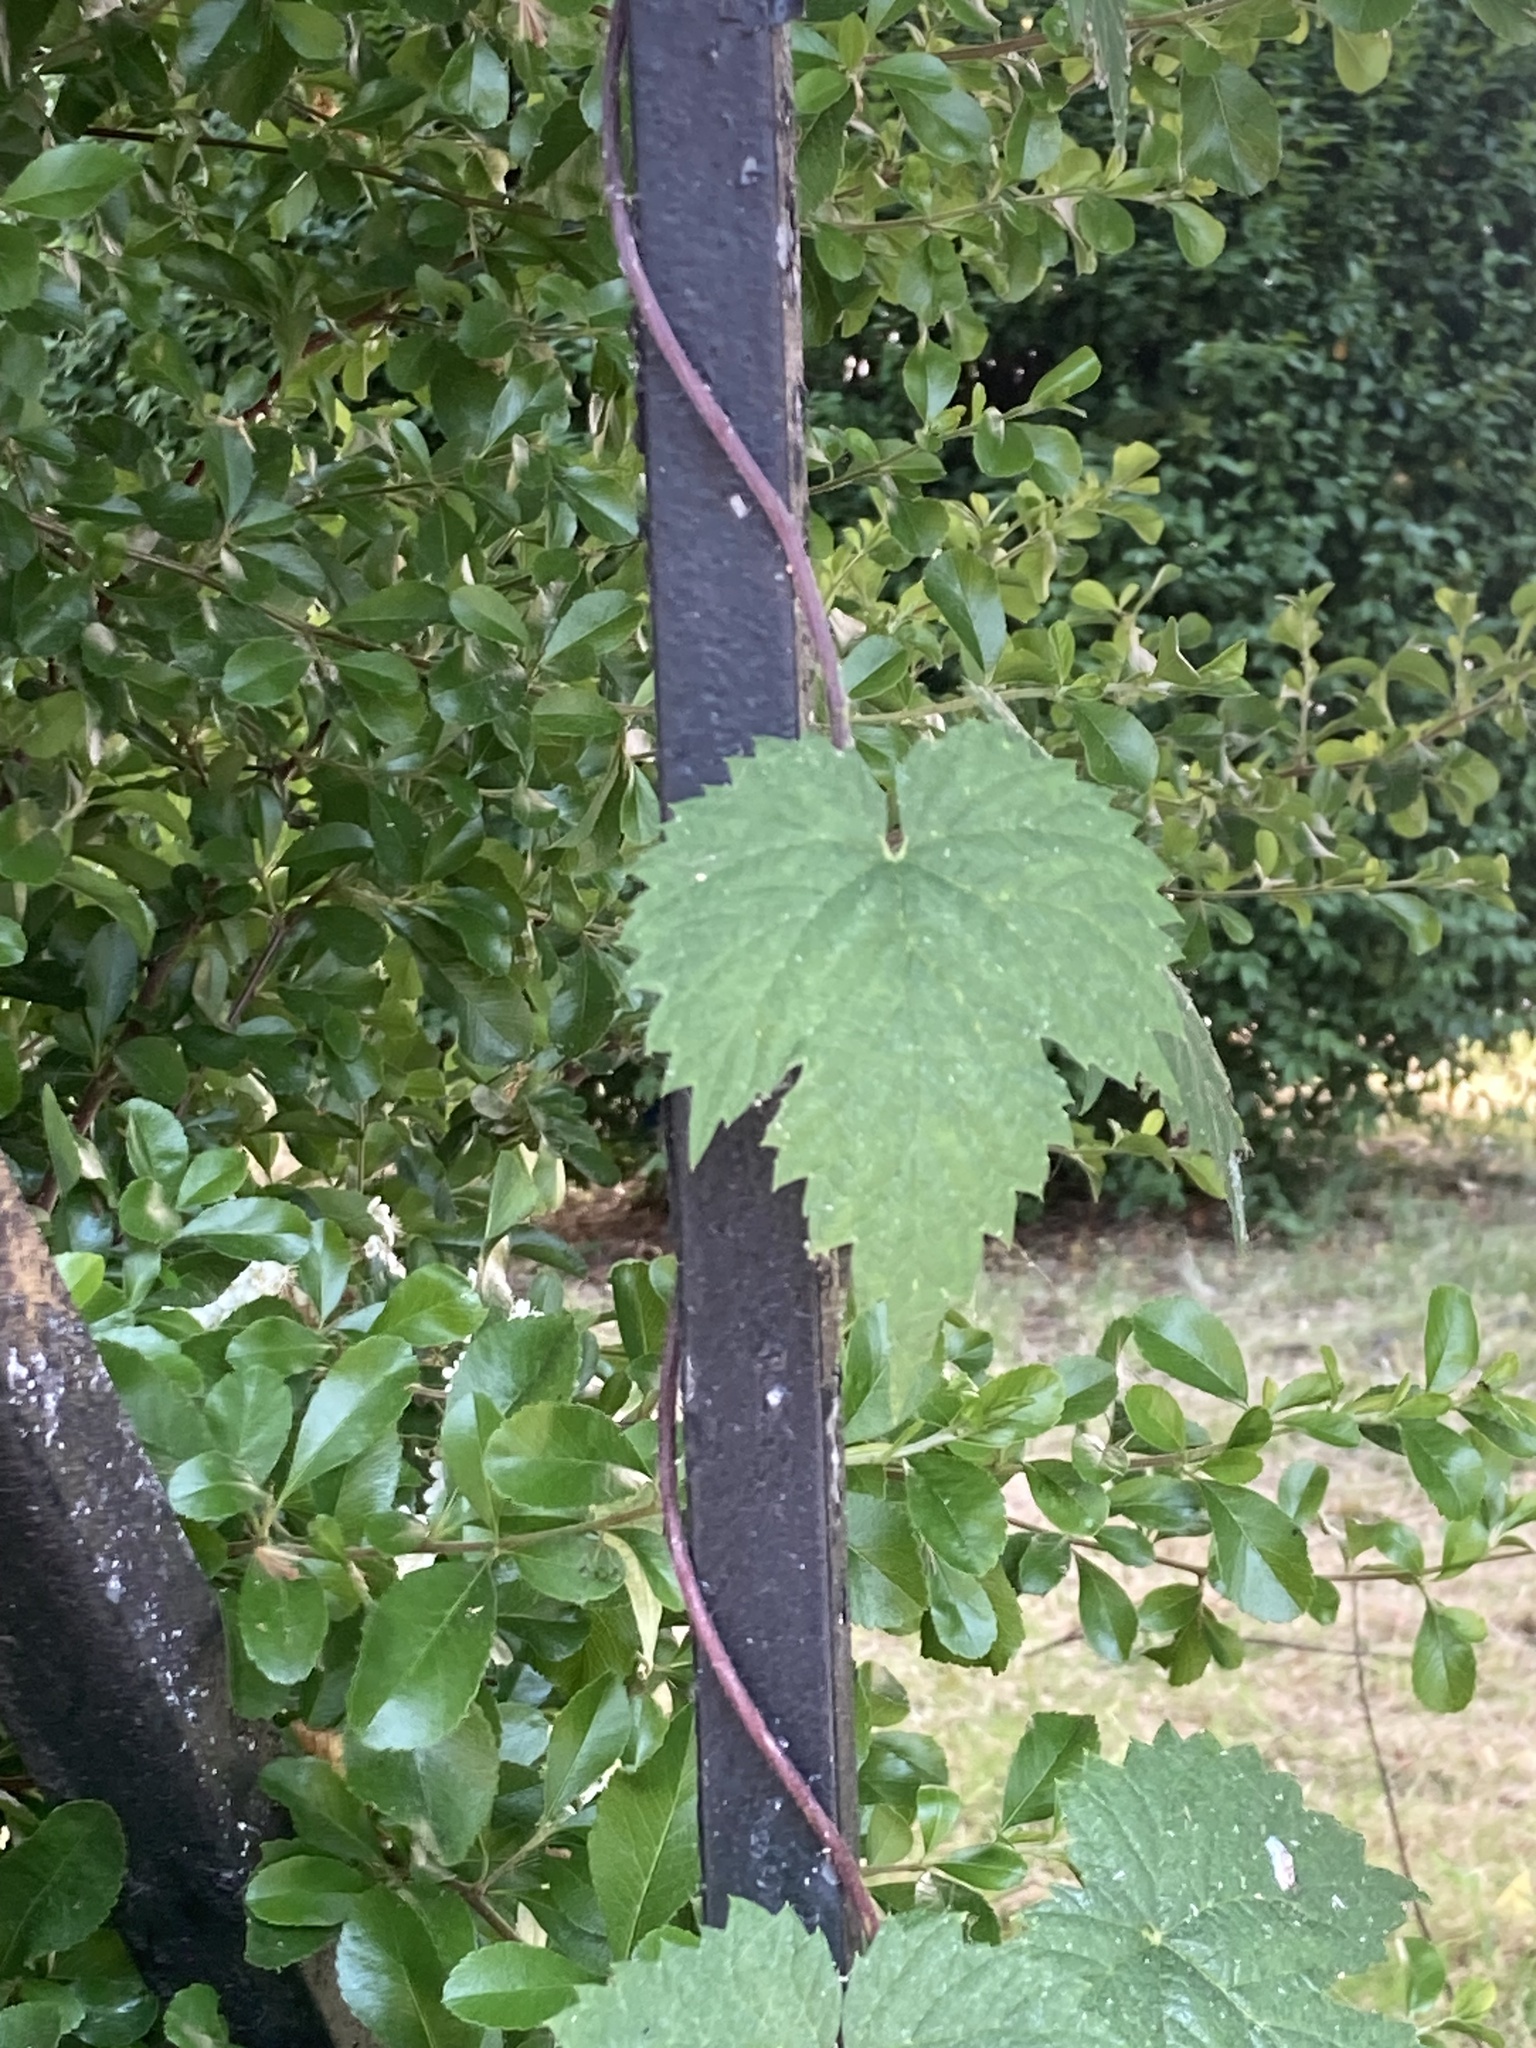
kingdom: Plantae
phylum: Tracheophyta
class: Magnoliopsida
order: Rosales
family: Cannabaceae
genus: Humulus
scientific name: Humulus lupulus
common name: Hop
